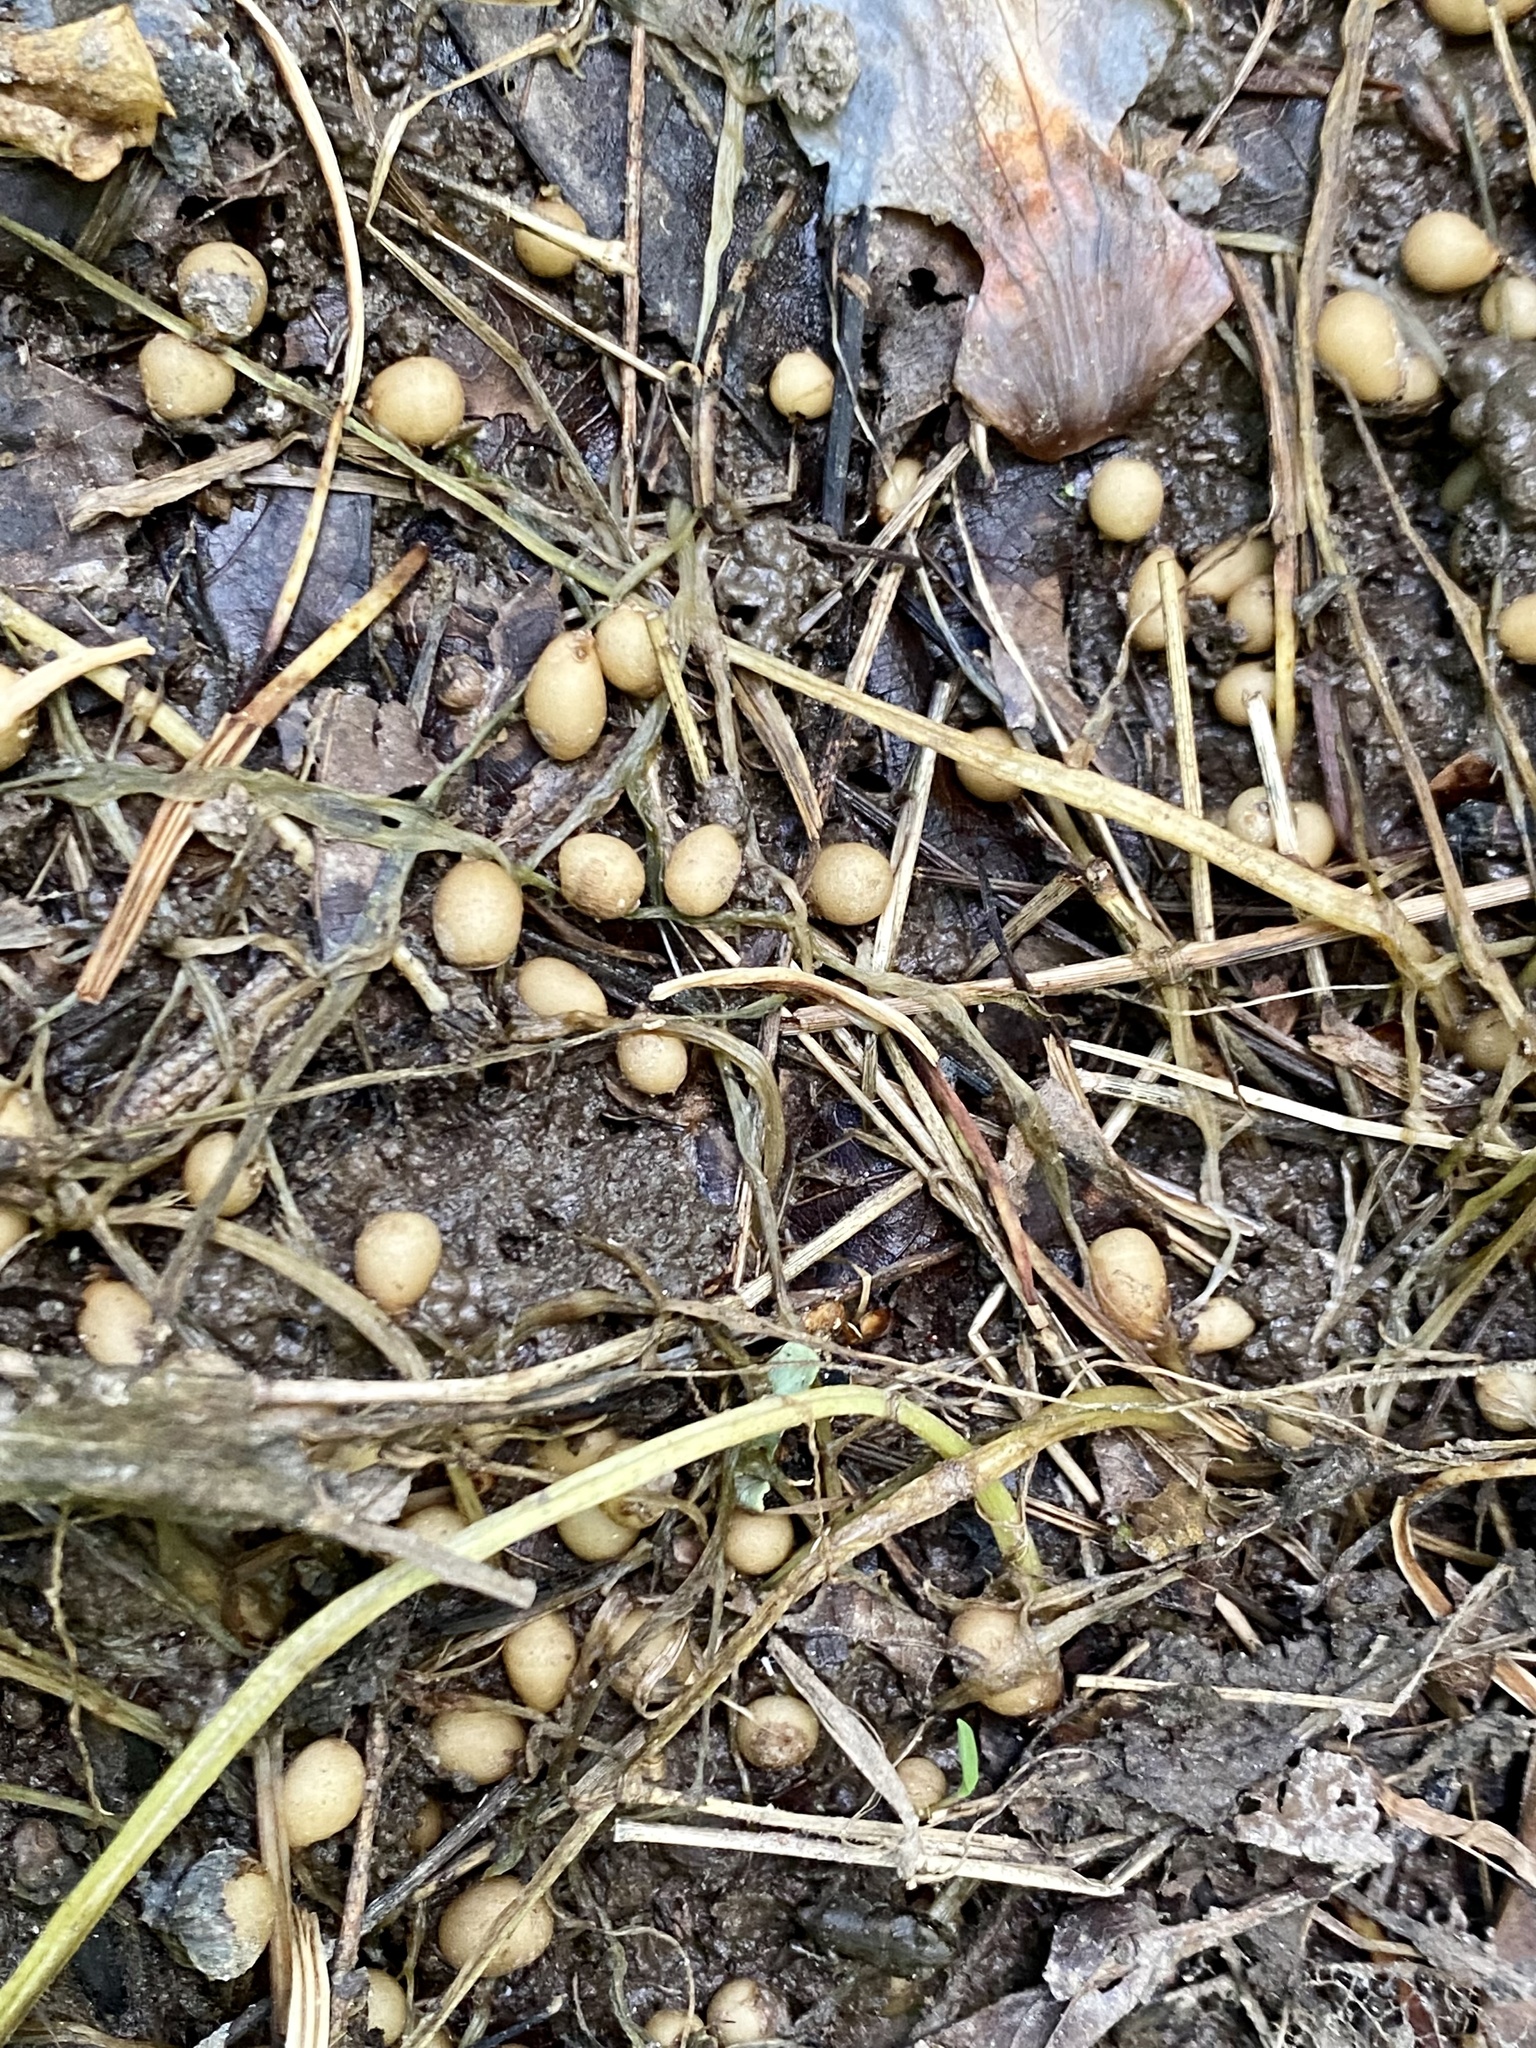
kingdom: Plantae
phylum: Tracheophyta
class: Magnoliopsida
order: Ranunculales
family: Ranunculaceae
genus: Ficaria
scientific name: Ficaria verna
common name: Lesser celandine
